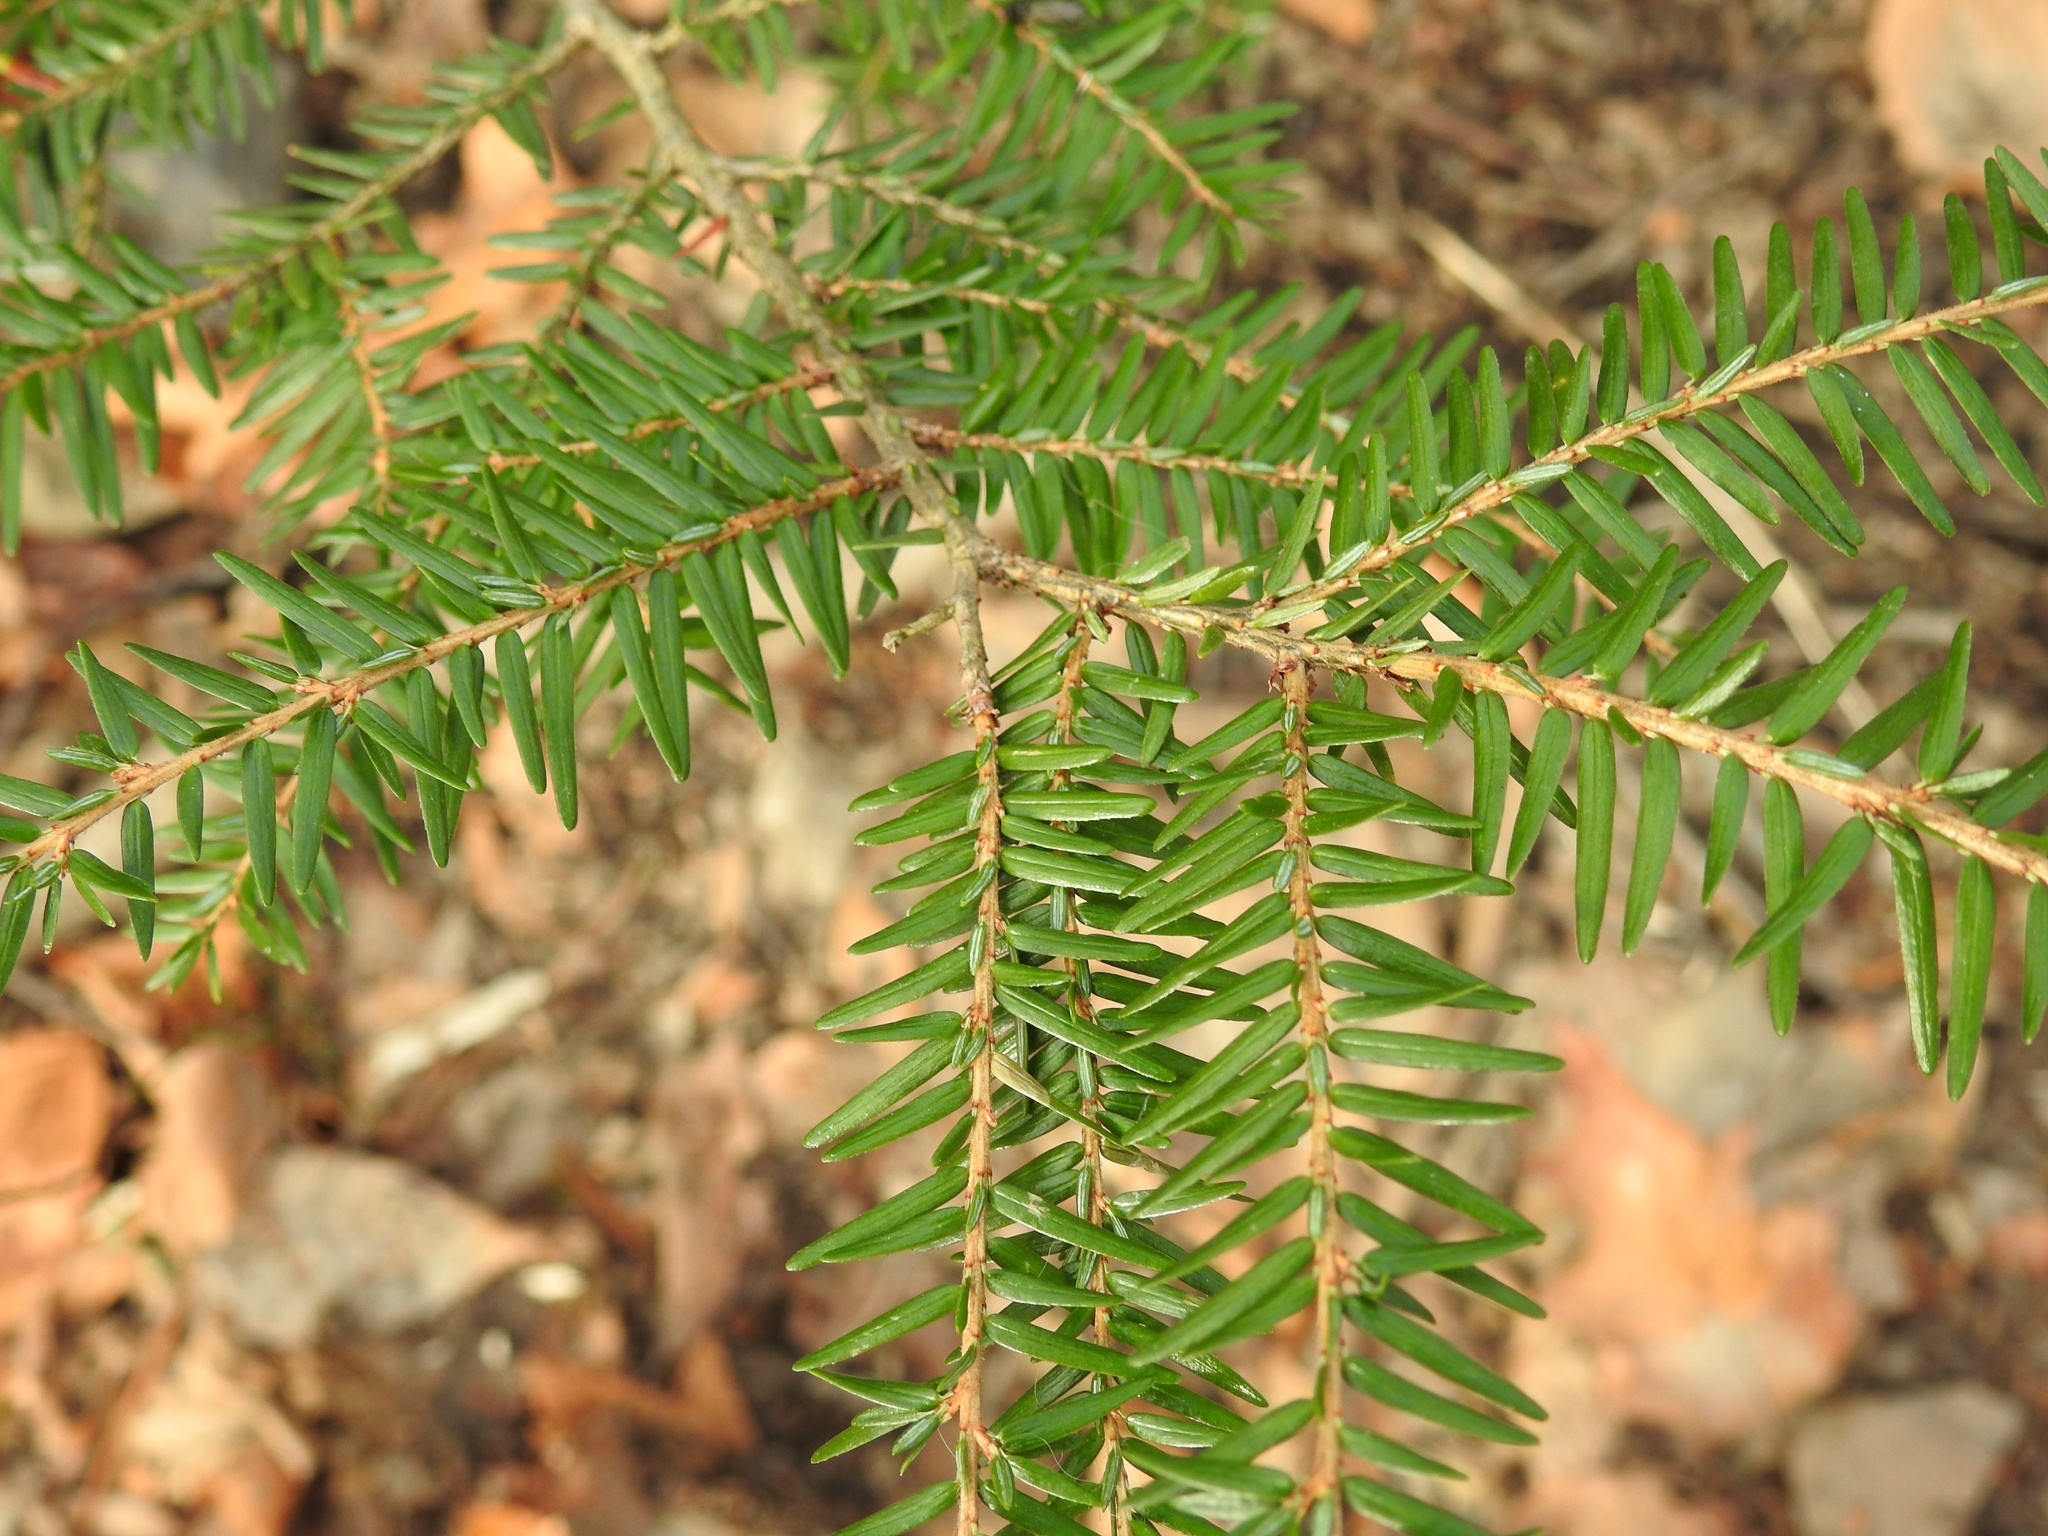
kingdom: Plantae
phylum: Tracheophyta
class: Pinopsida
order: Pinales
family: Pinaceae
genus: Tsuga
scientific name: Tsuga canadensis
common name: Eastern hemlock
